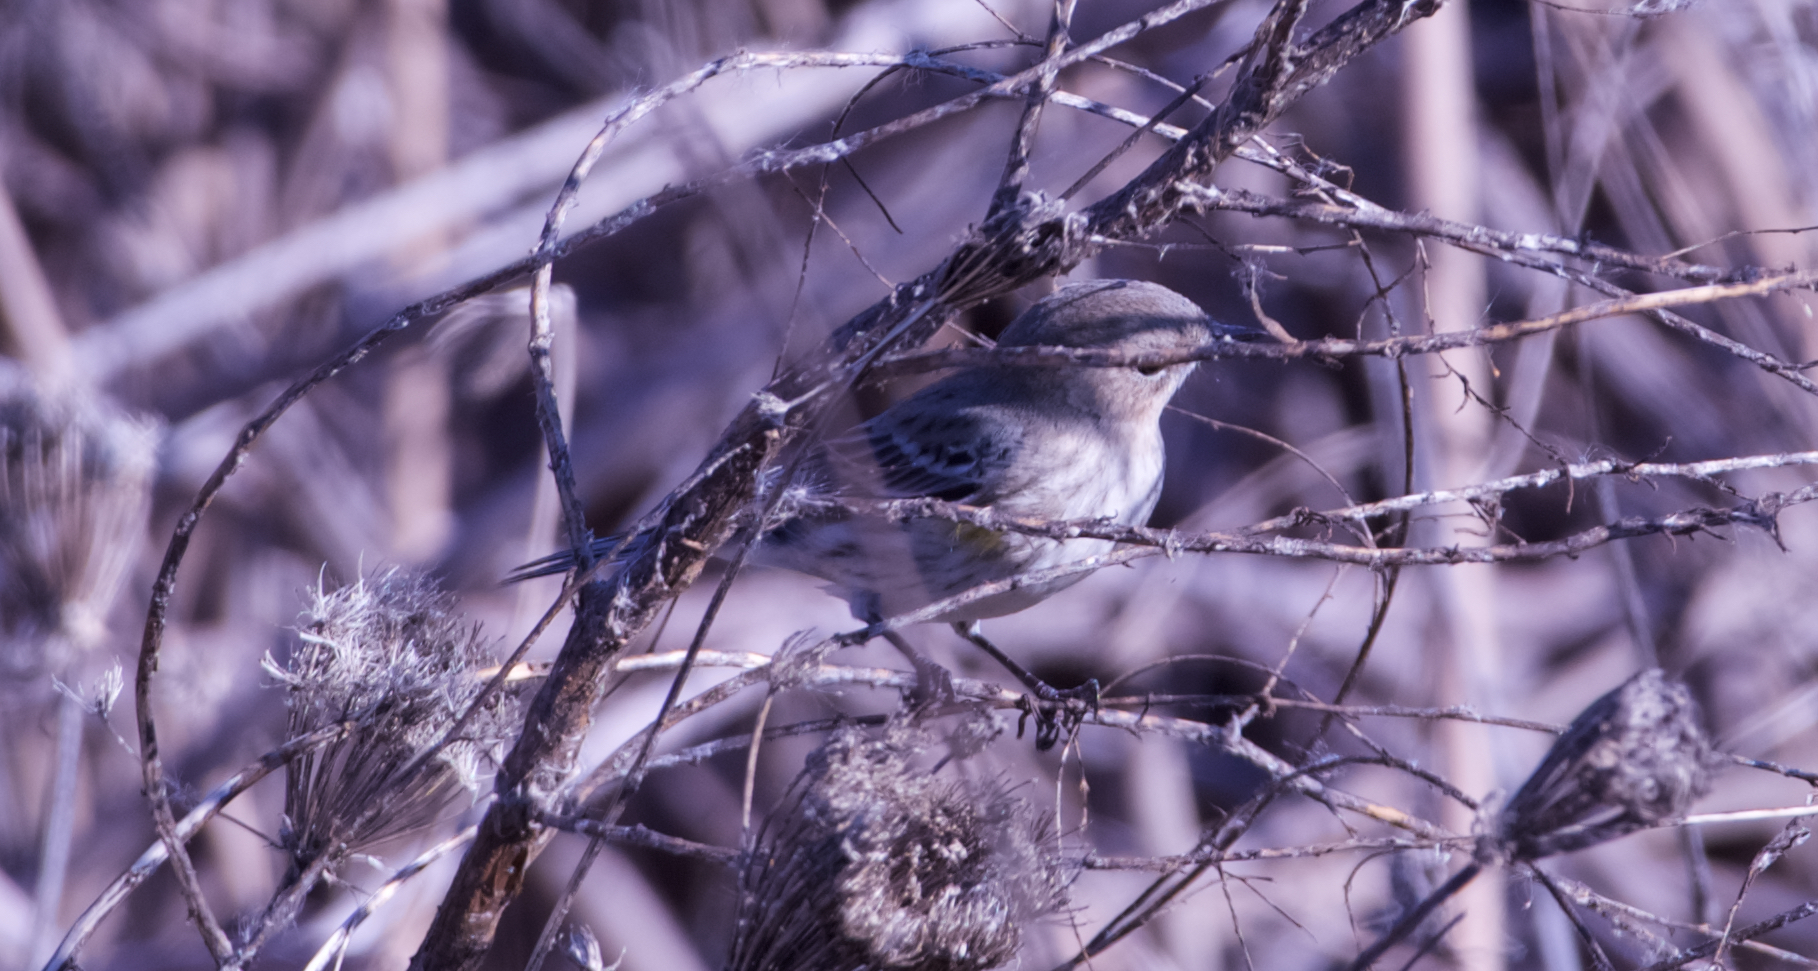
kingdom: Animalia
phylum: Chordata
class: Aves
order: Passeriformes
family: Parulidae
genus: Setophaga
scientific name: Setophaga coronata
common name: Myrtle warbler
